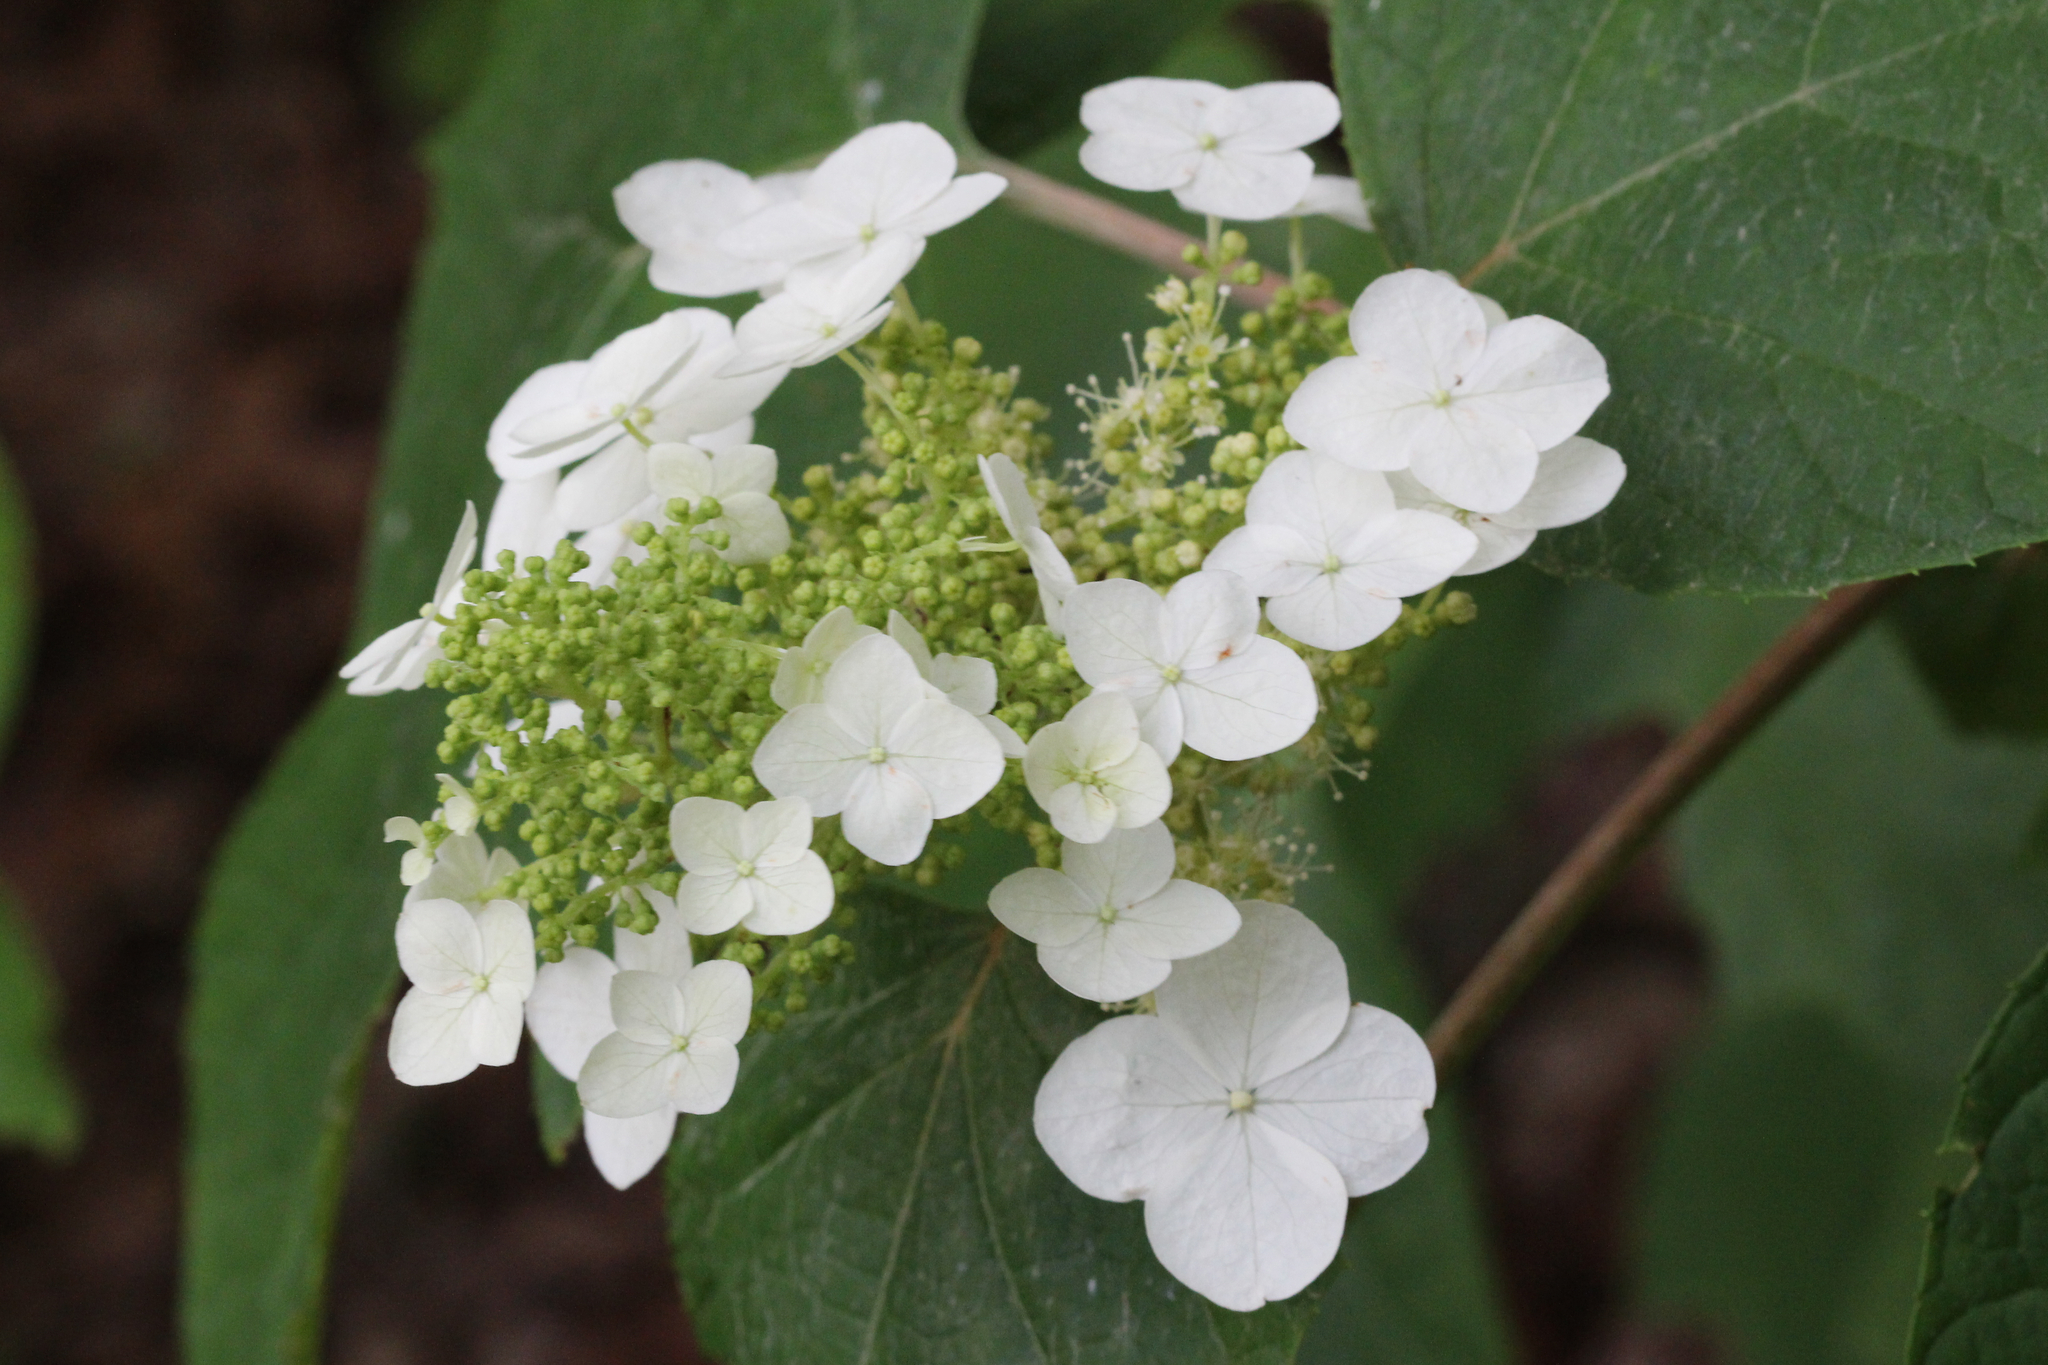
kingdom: Plantae
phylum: Tracheophyta
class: Magnoliopsida
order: Cornales
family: Hydrangeaceae
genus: Hydrangea
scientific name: Hydrangea quercifolia
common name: Oak-leaf hydrangea
